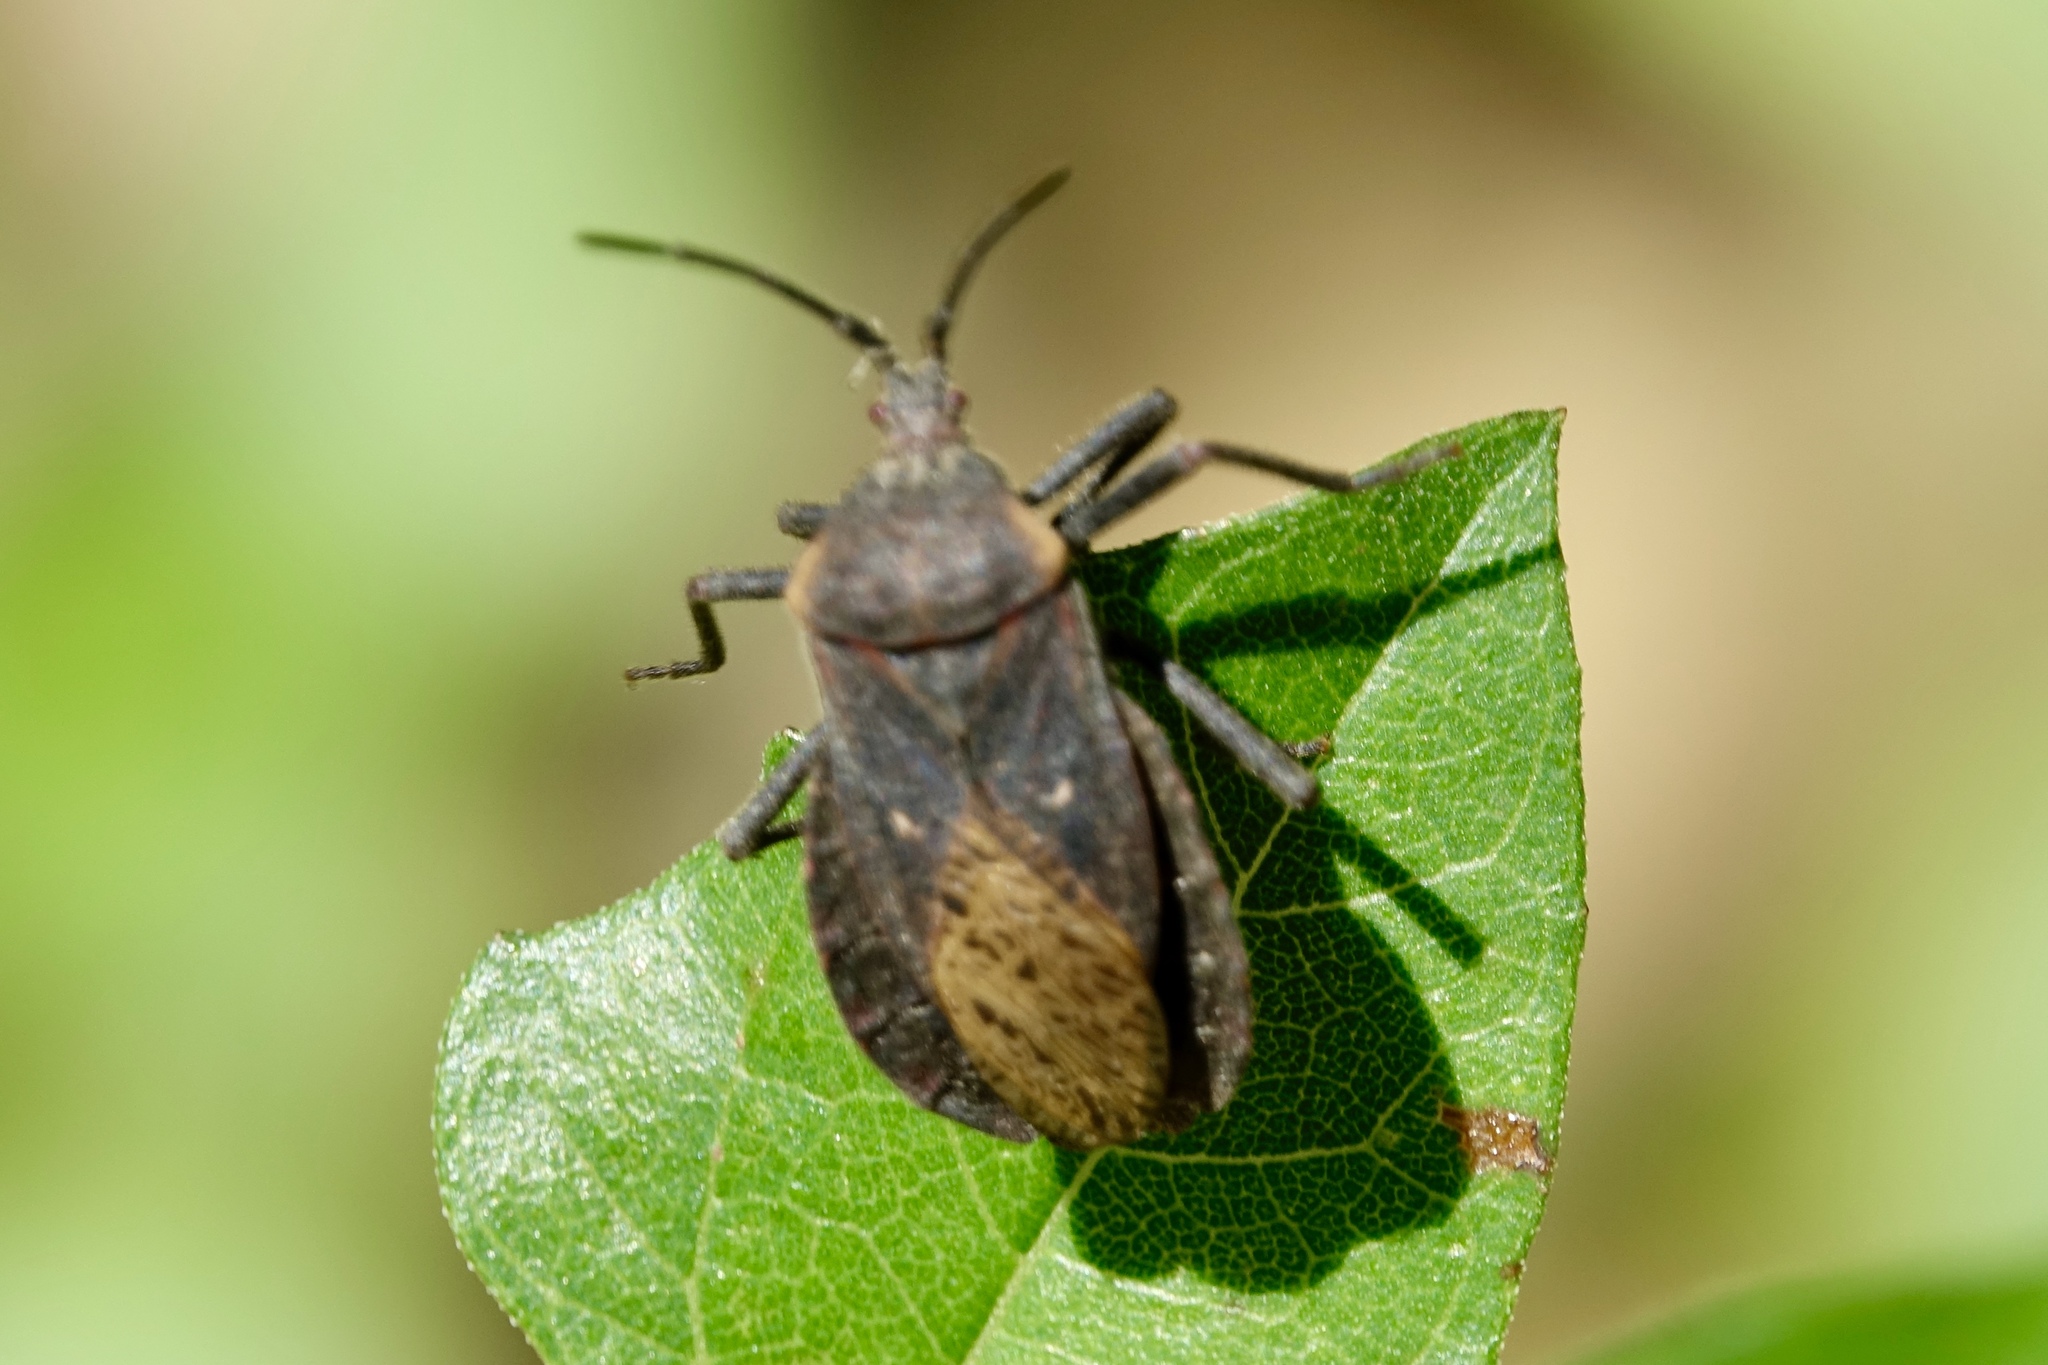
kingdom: Animalia
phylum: Arthropoda
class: Insecta
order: Hemiptera
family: Coreidae
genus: Spartocera
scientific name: Spartocera batatas
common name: Giant sweetpotato bug
